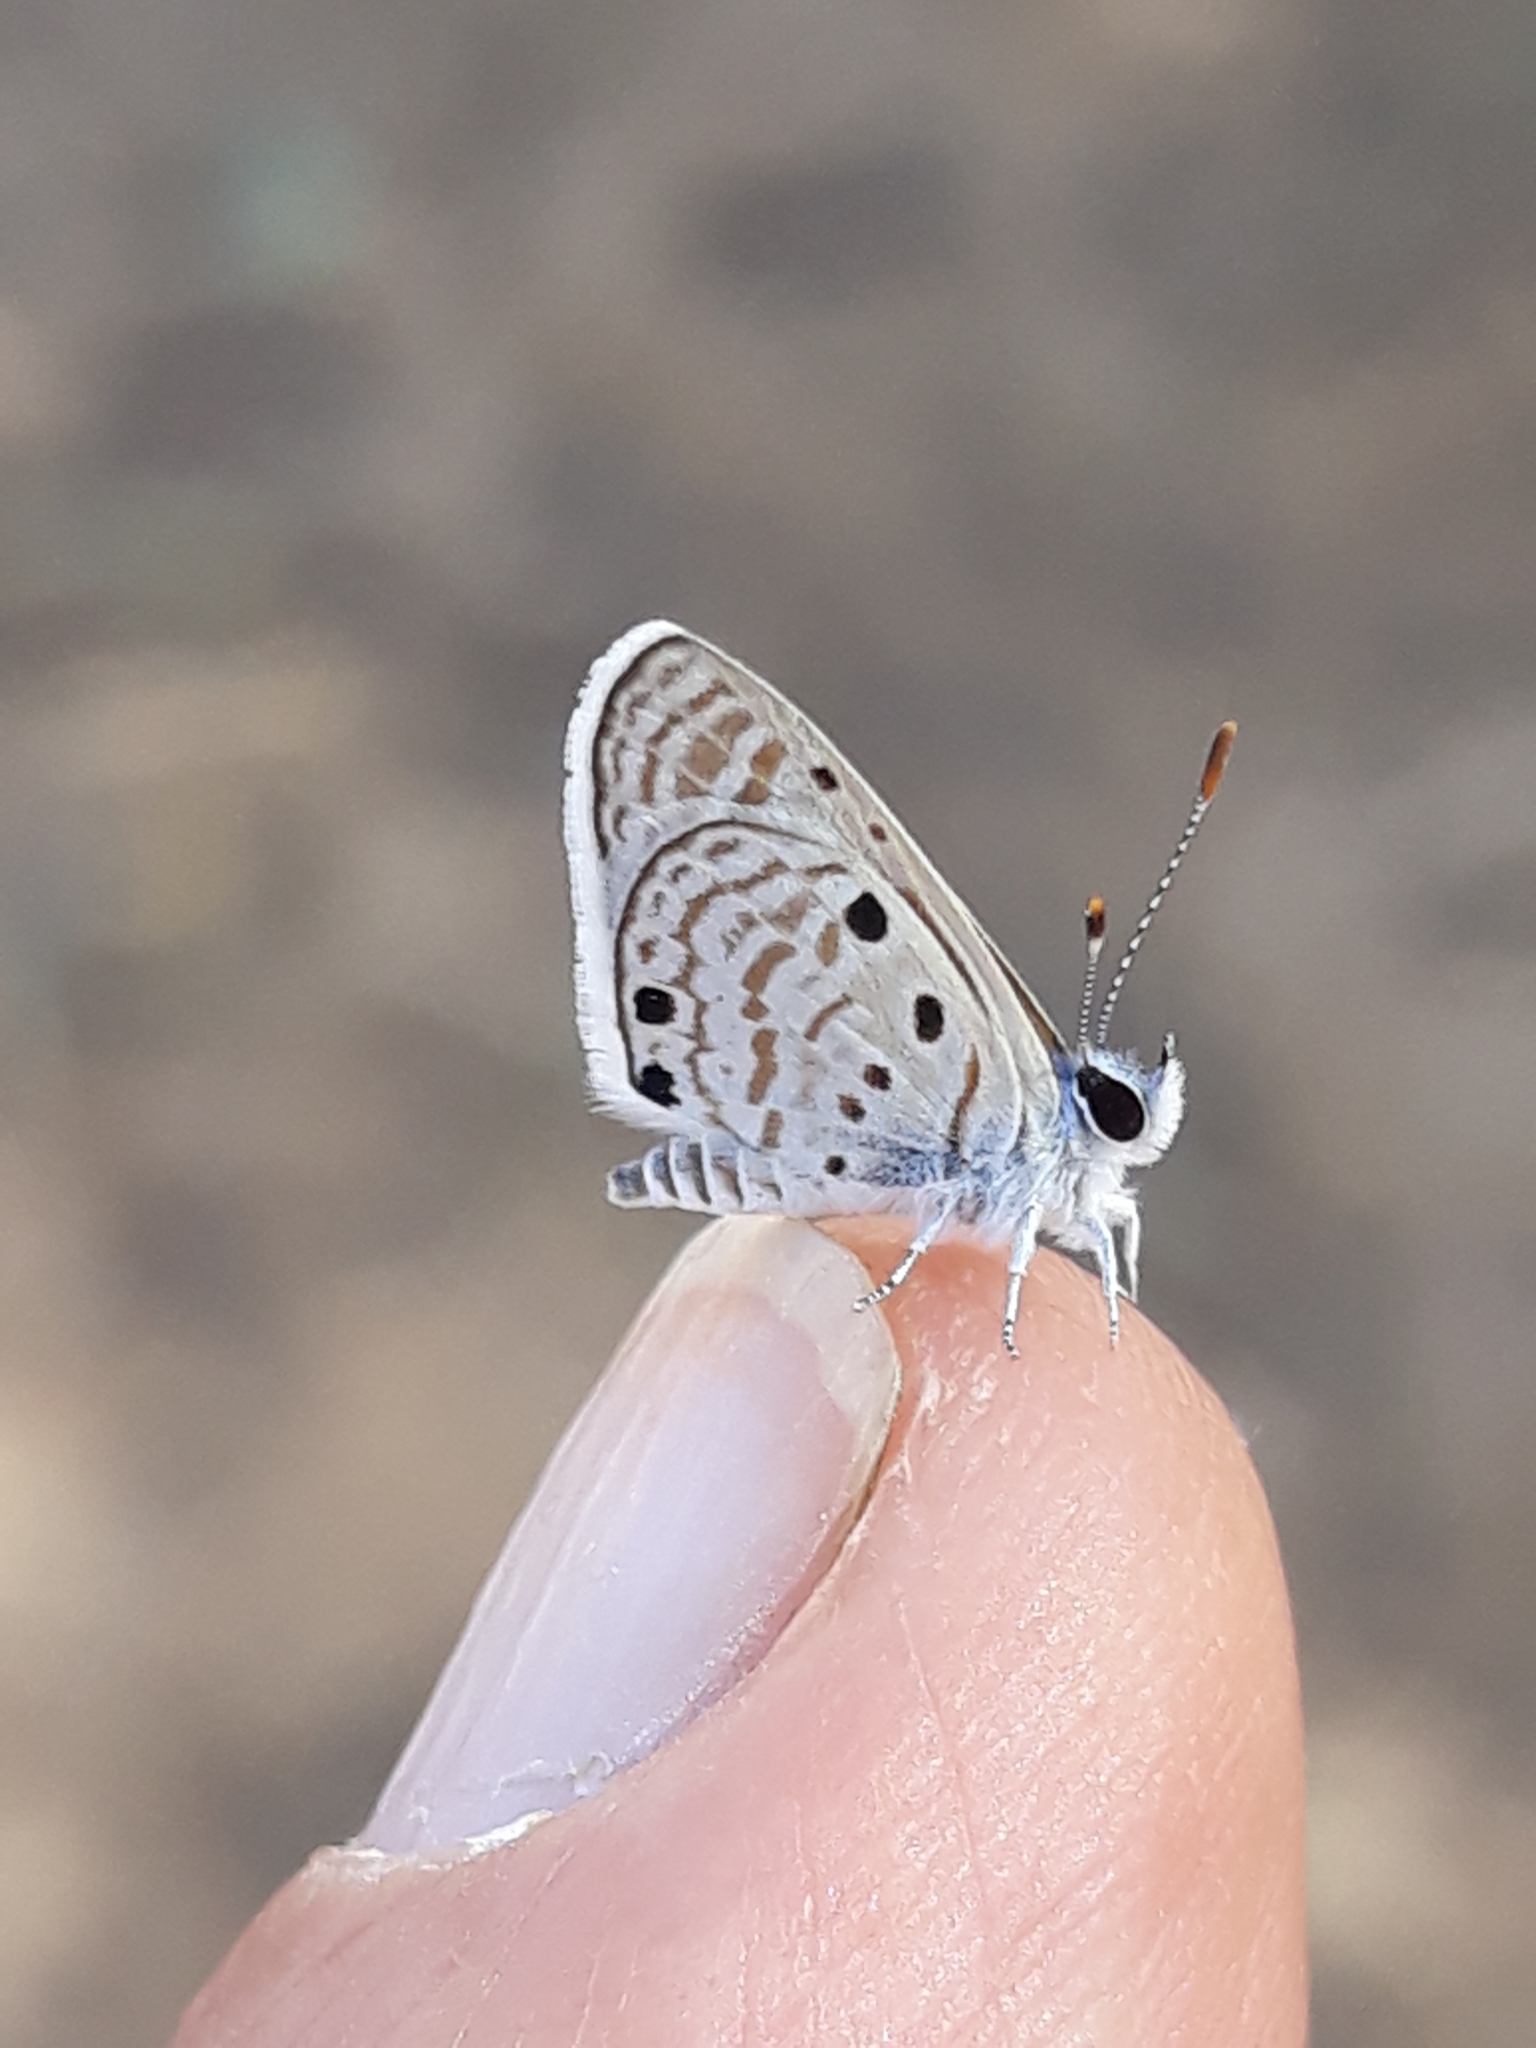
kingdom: Animalia
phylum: Arthropoda
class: Insecta
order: Lepidoptera
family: Lycaenidae
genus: Azanus
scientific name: Azanus ubaldus
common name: Desert babul blue
